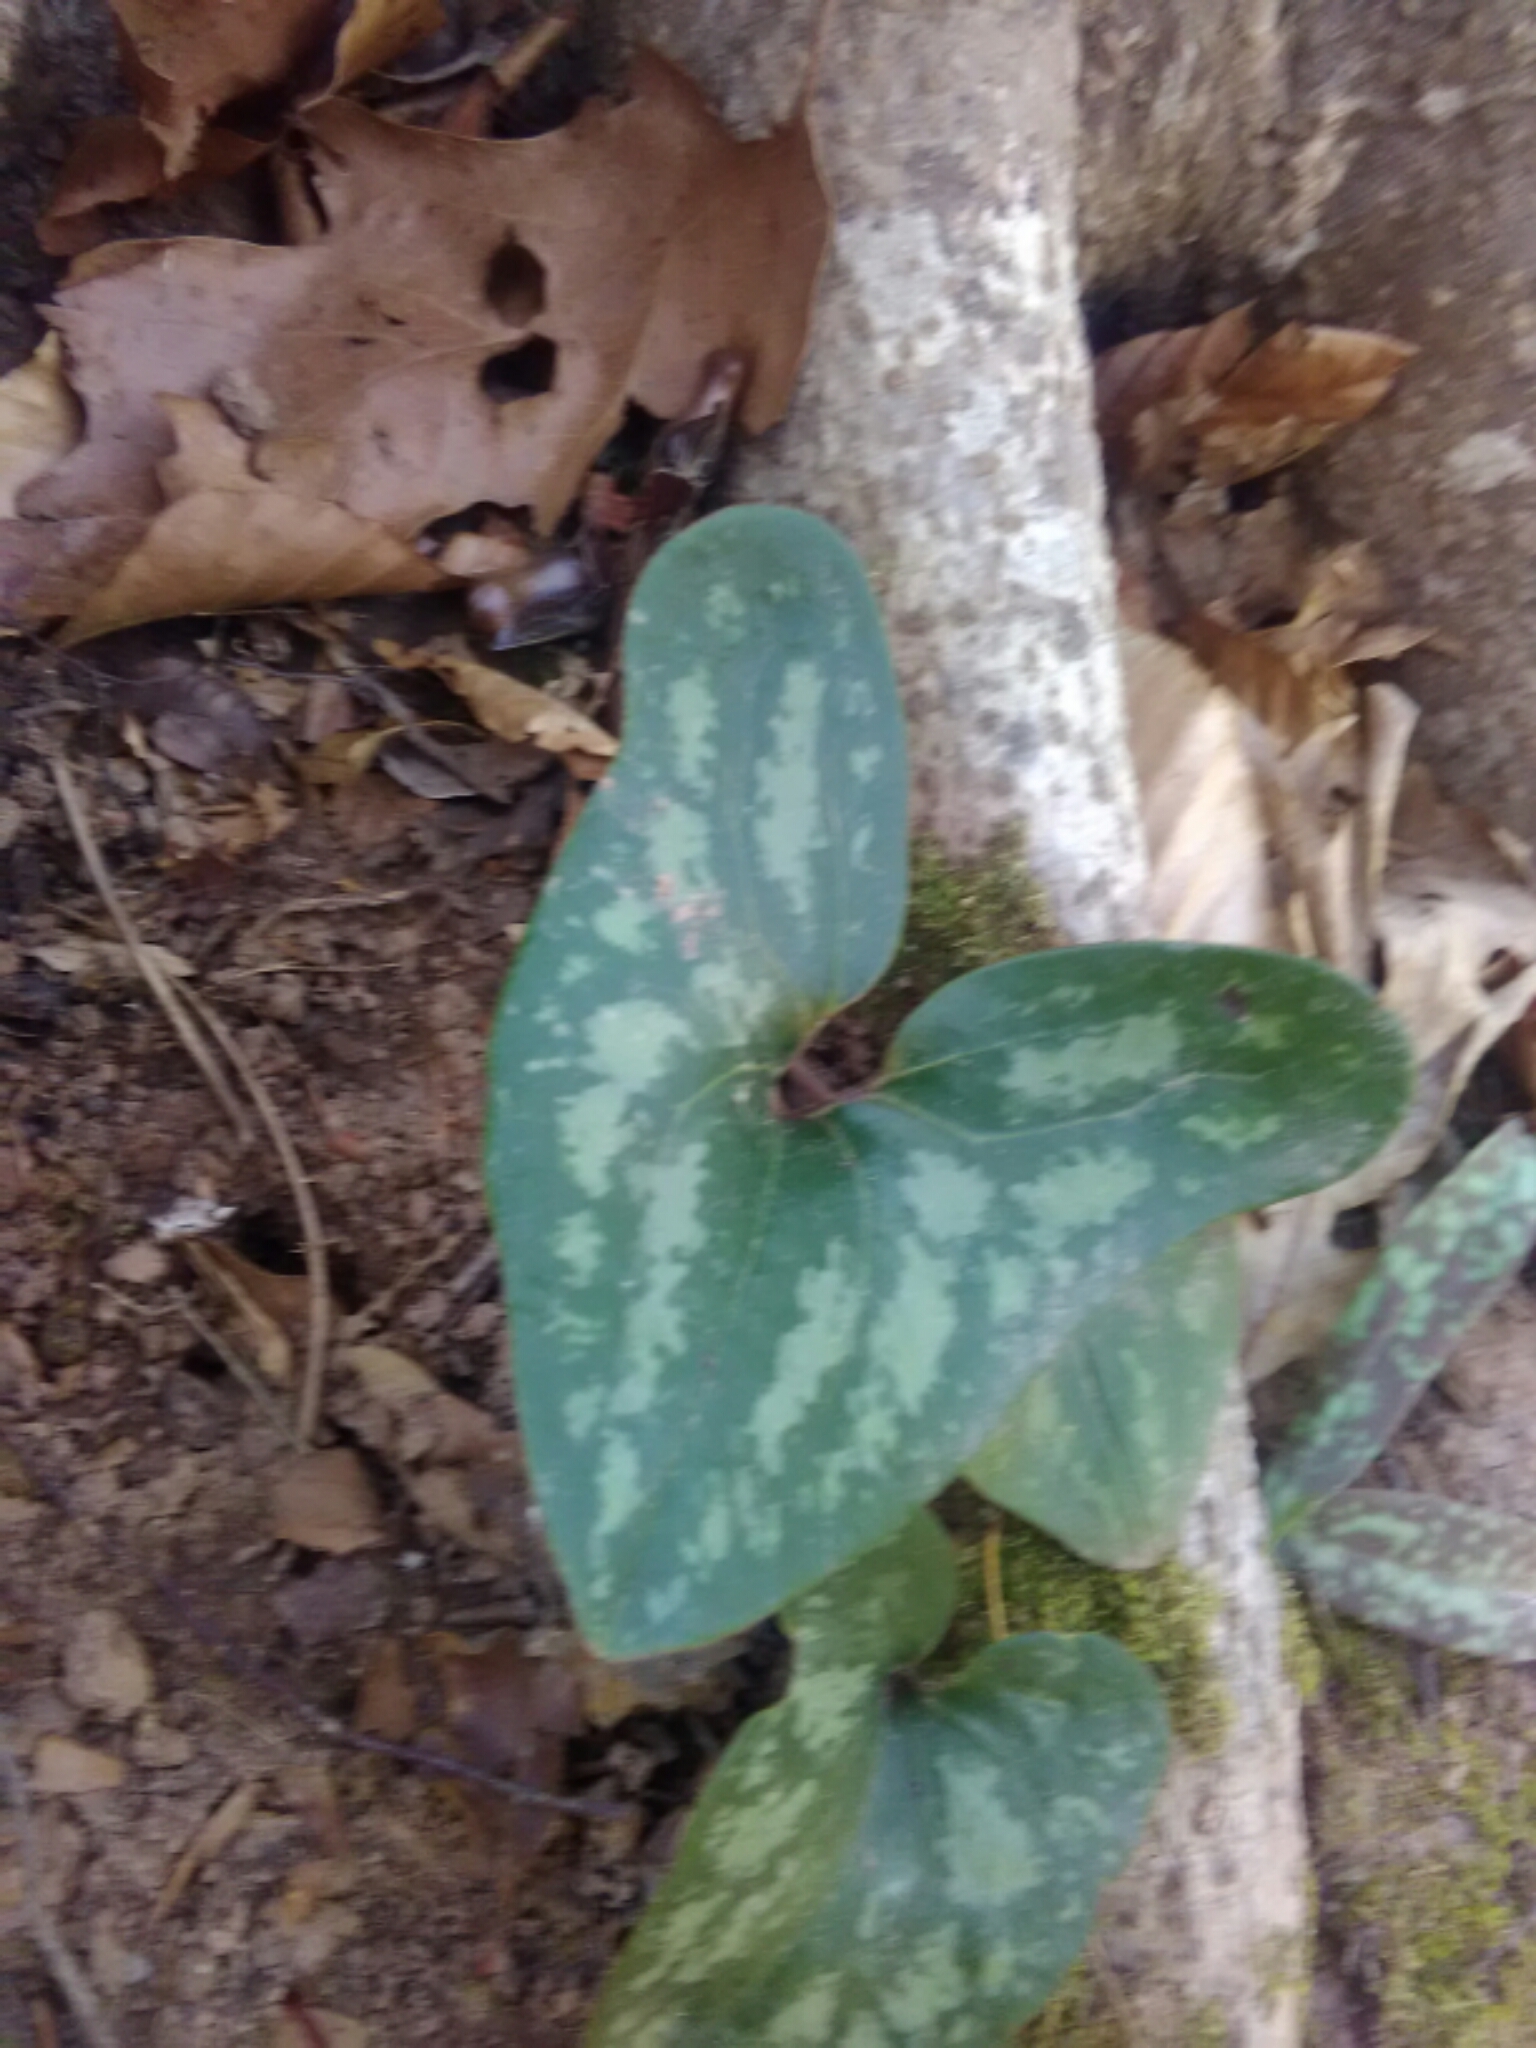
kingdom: Plantae
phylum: Tracheophyta
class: Magnoliopsida
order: Piperales
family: Aristolochiaceae
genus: Hexastylis
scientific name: Hexastylis arifolia
